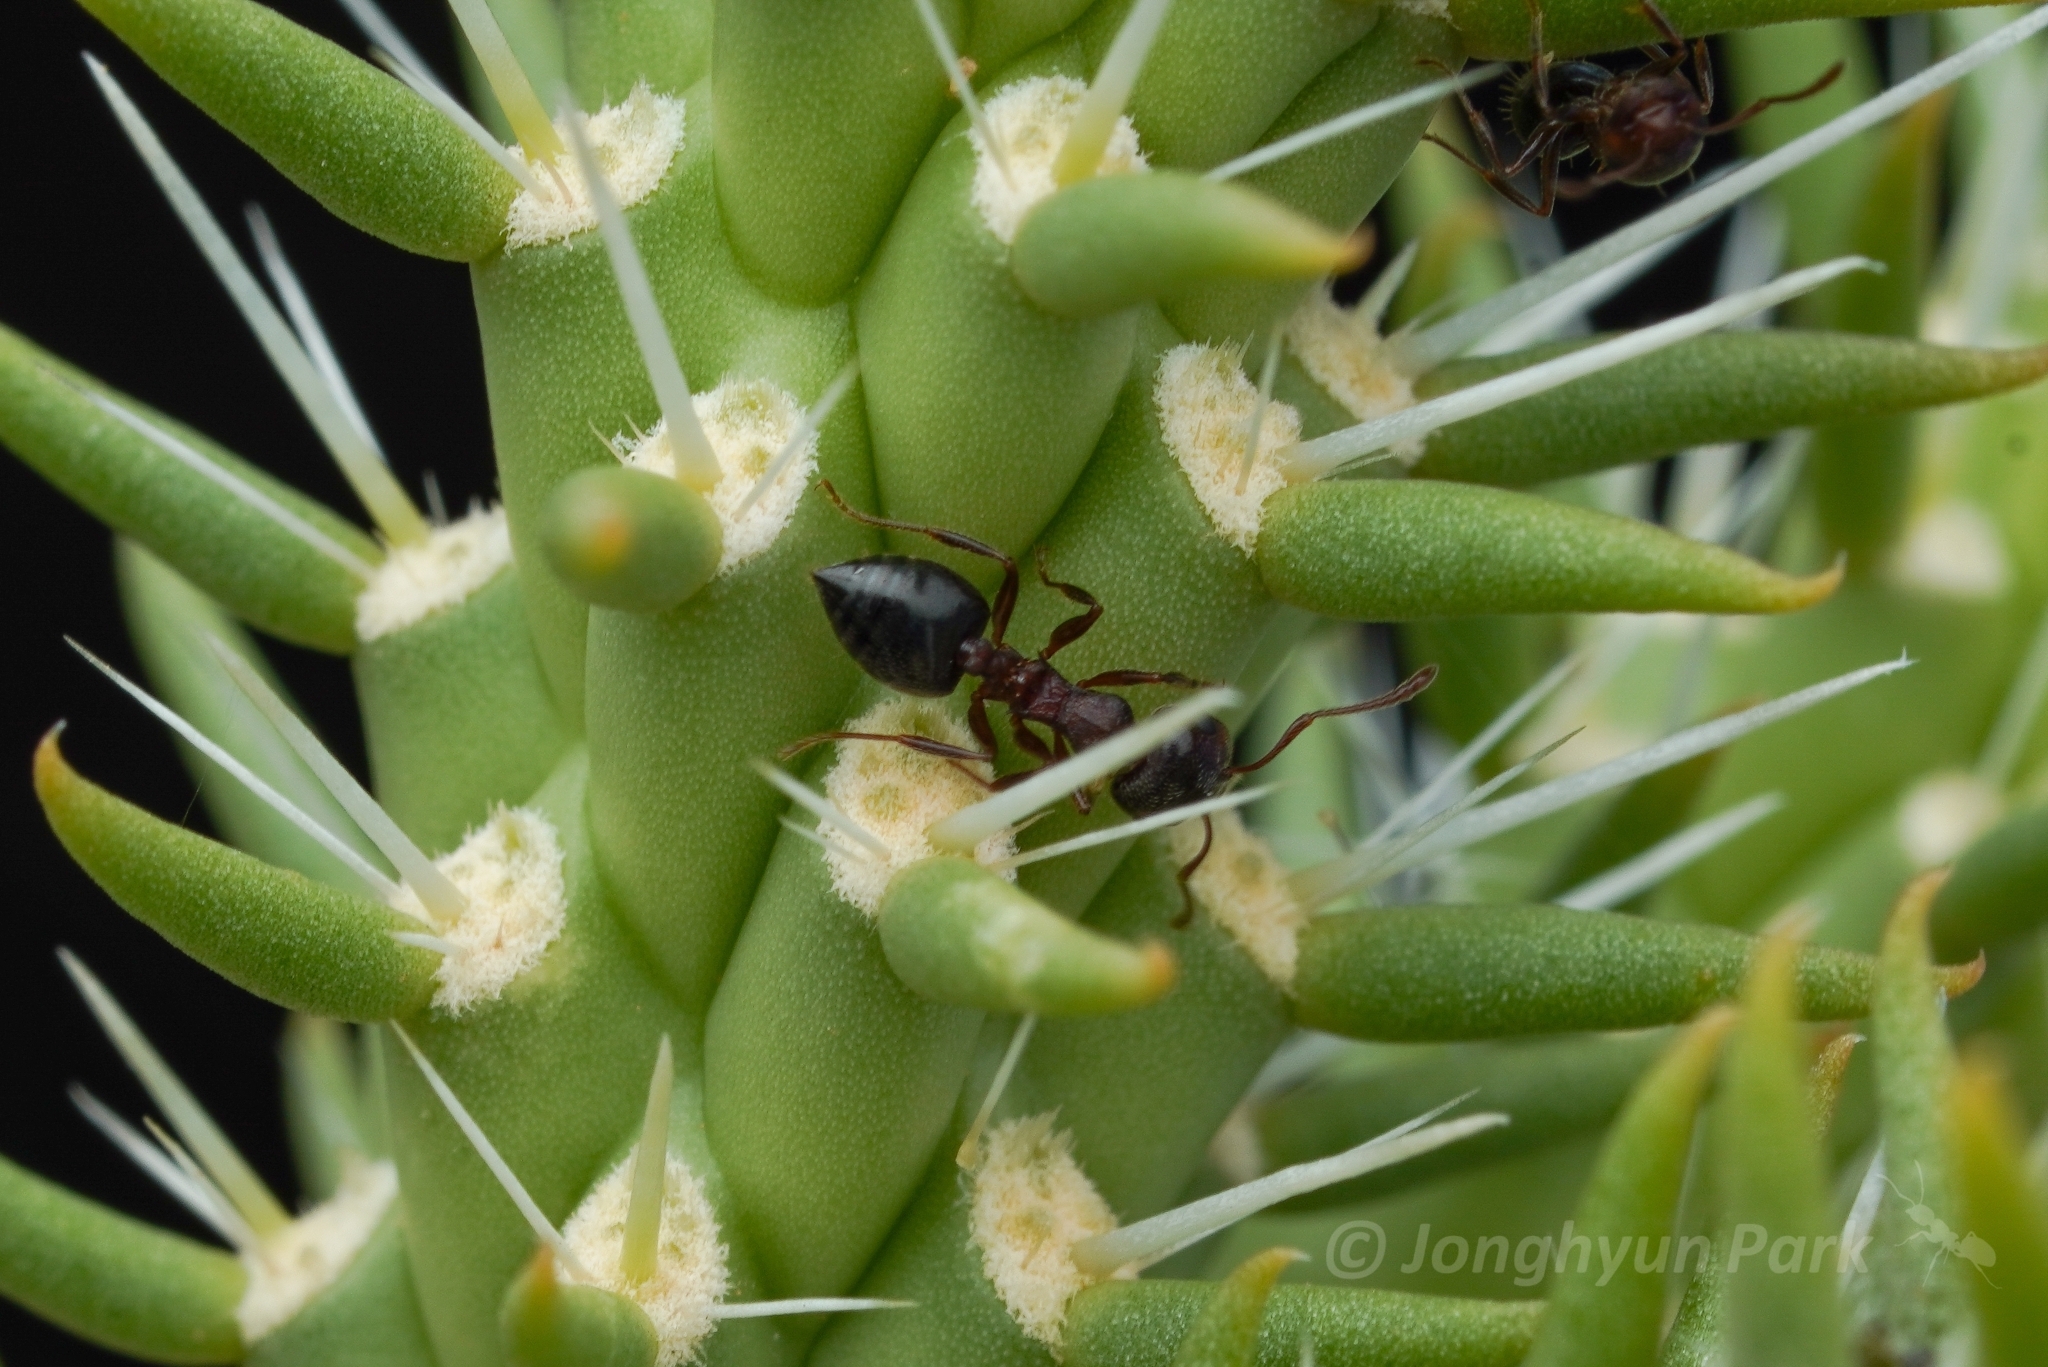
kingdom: Animalia
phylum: Arthropoda
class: Insecta
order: Hymenoptera
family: Formicidae
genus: Crematogaster
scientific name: Crematogaster opuntiae
